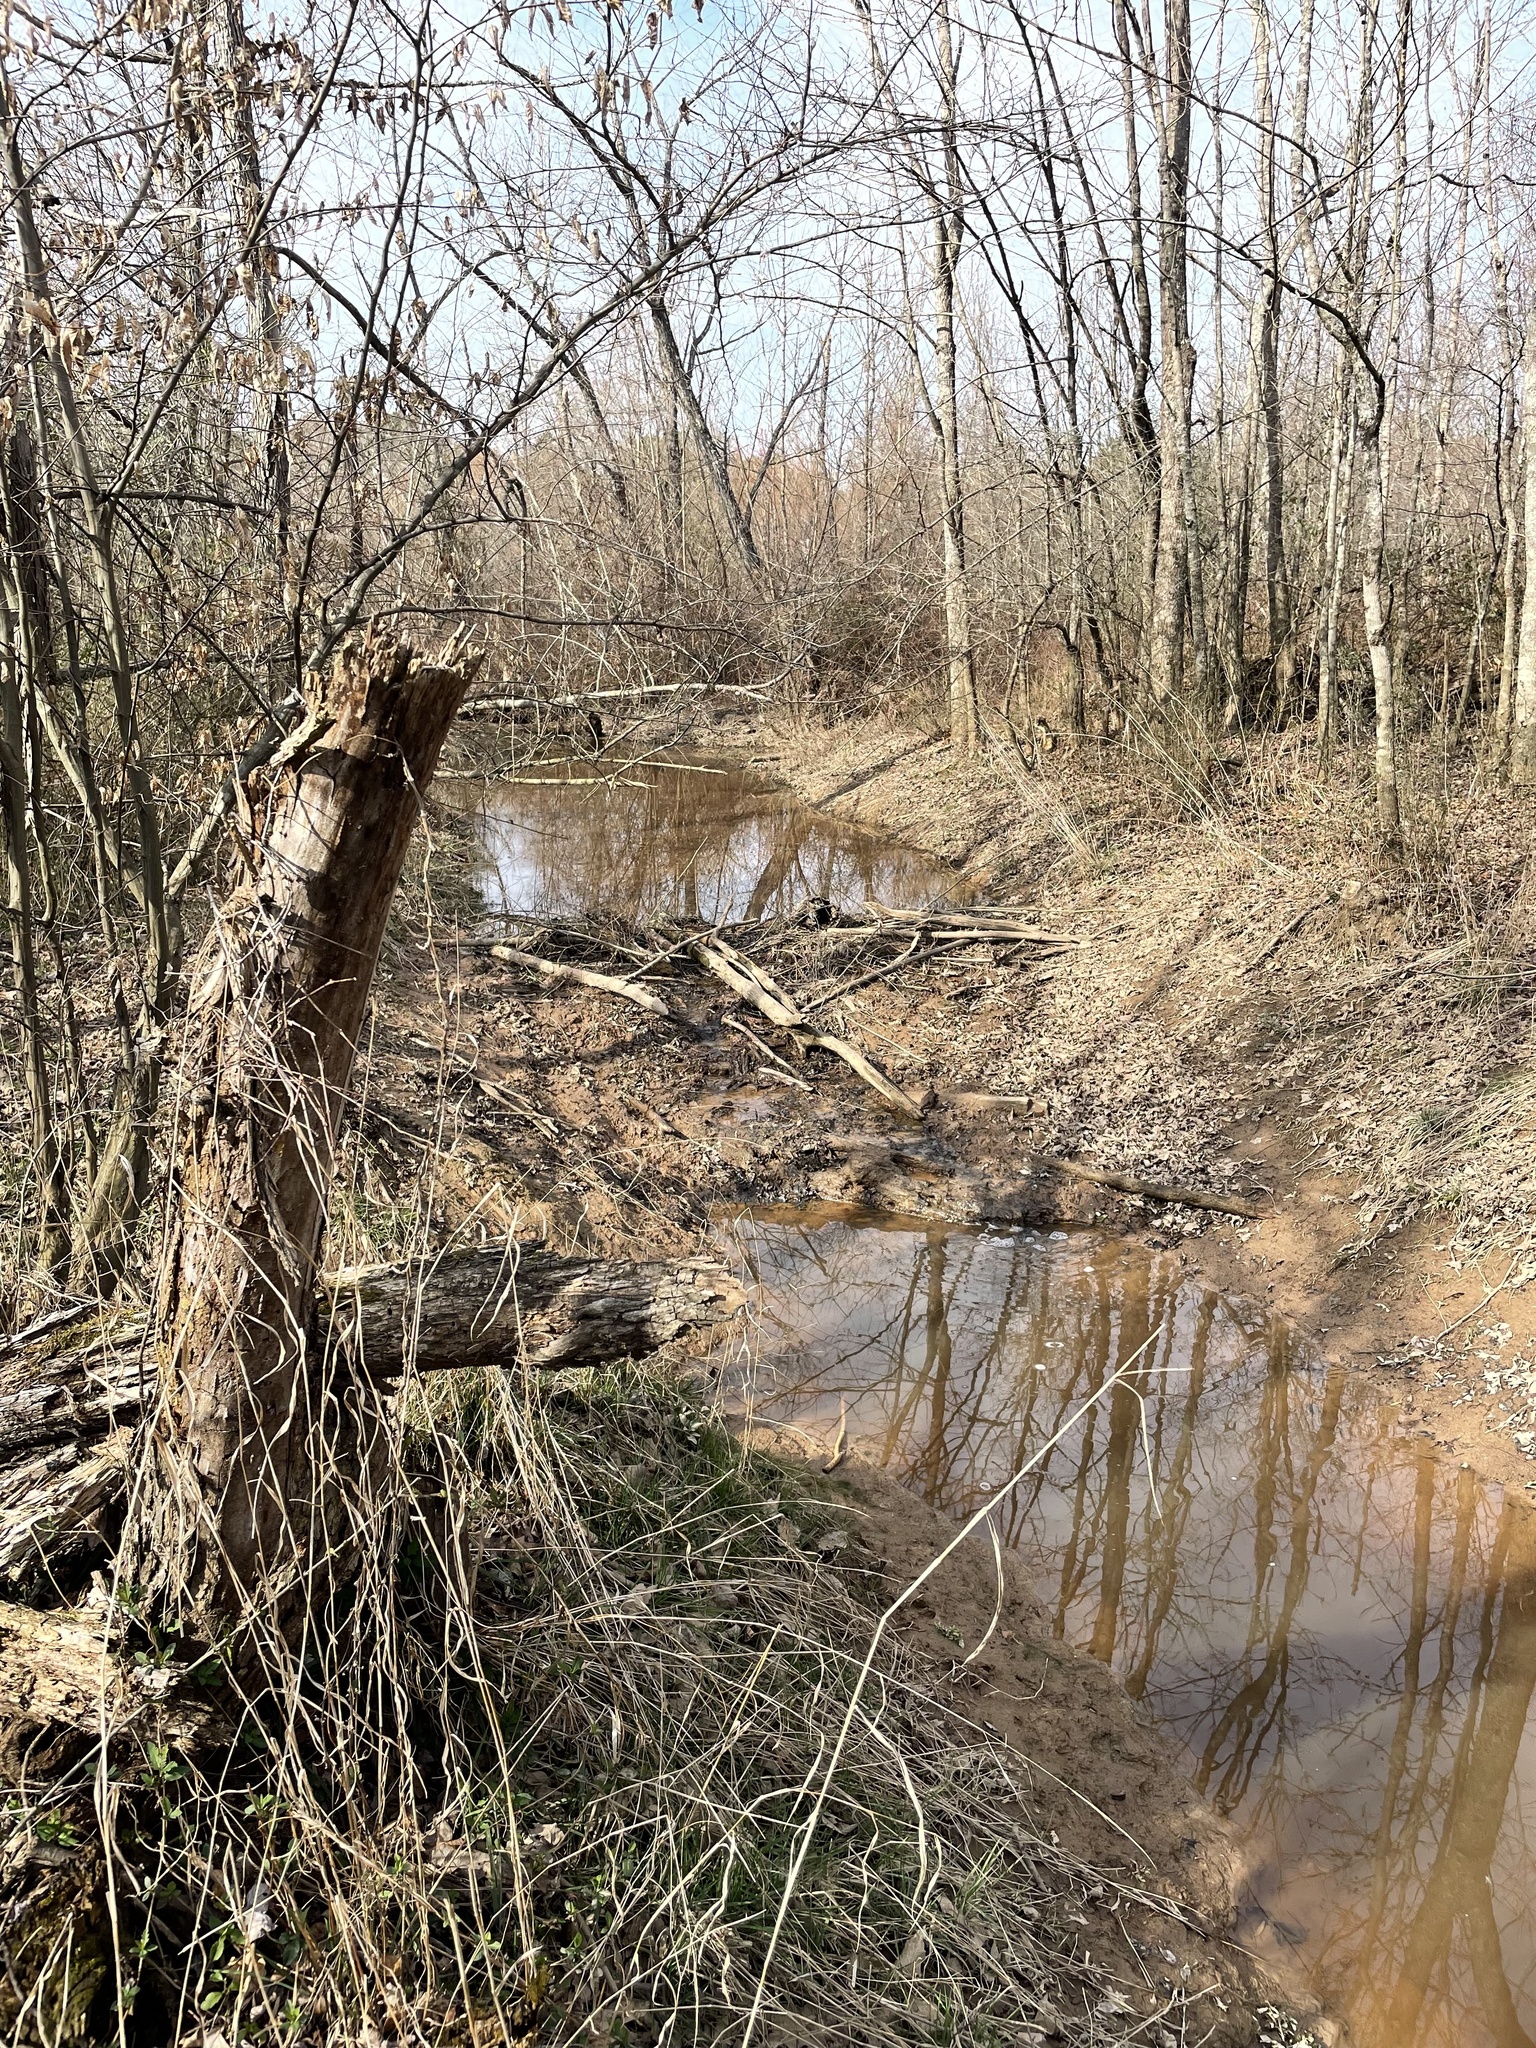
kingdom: Animalia
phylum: Chordata
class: Mammalia
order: Rodentia
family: Castoridae
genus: Castor
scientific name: Castor canadensis
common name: American beaver
